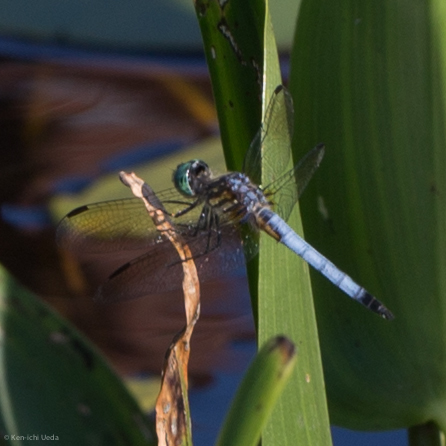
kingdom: Animalia
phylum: Arthropoda
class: Insecta
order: Odonata
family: Libellulidae
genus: Pachydiplax
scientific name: Pachydiplax longipennis
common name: Blue dasher
